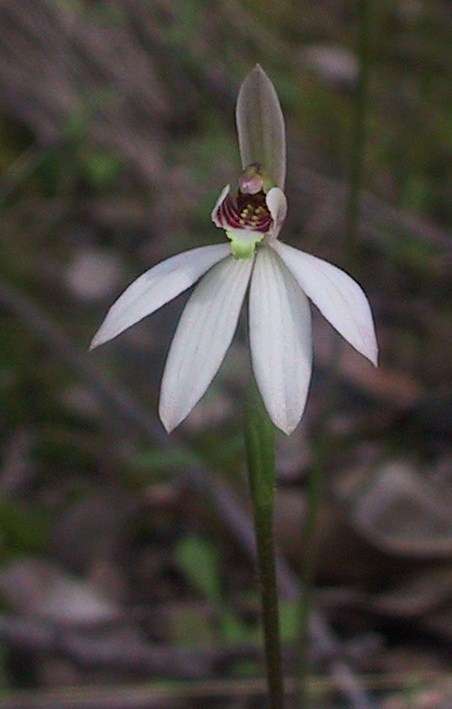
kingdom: Plantae
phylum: Tracheophyta
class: Liliopsida
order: Asparagales
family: Orchidaceae
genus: Caladenia
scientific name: Caladenia carnea
